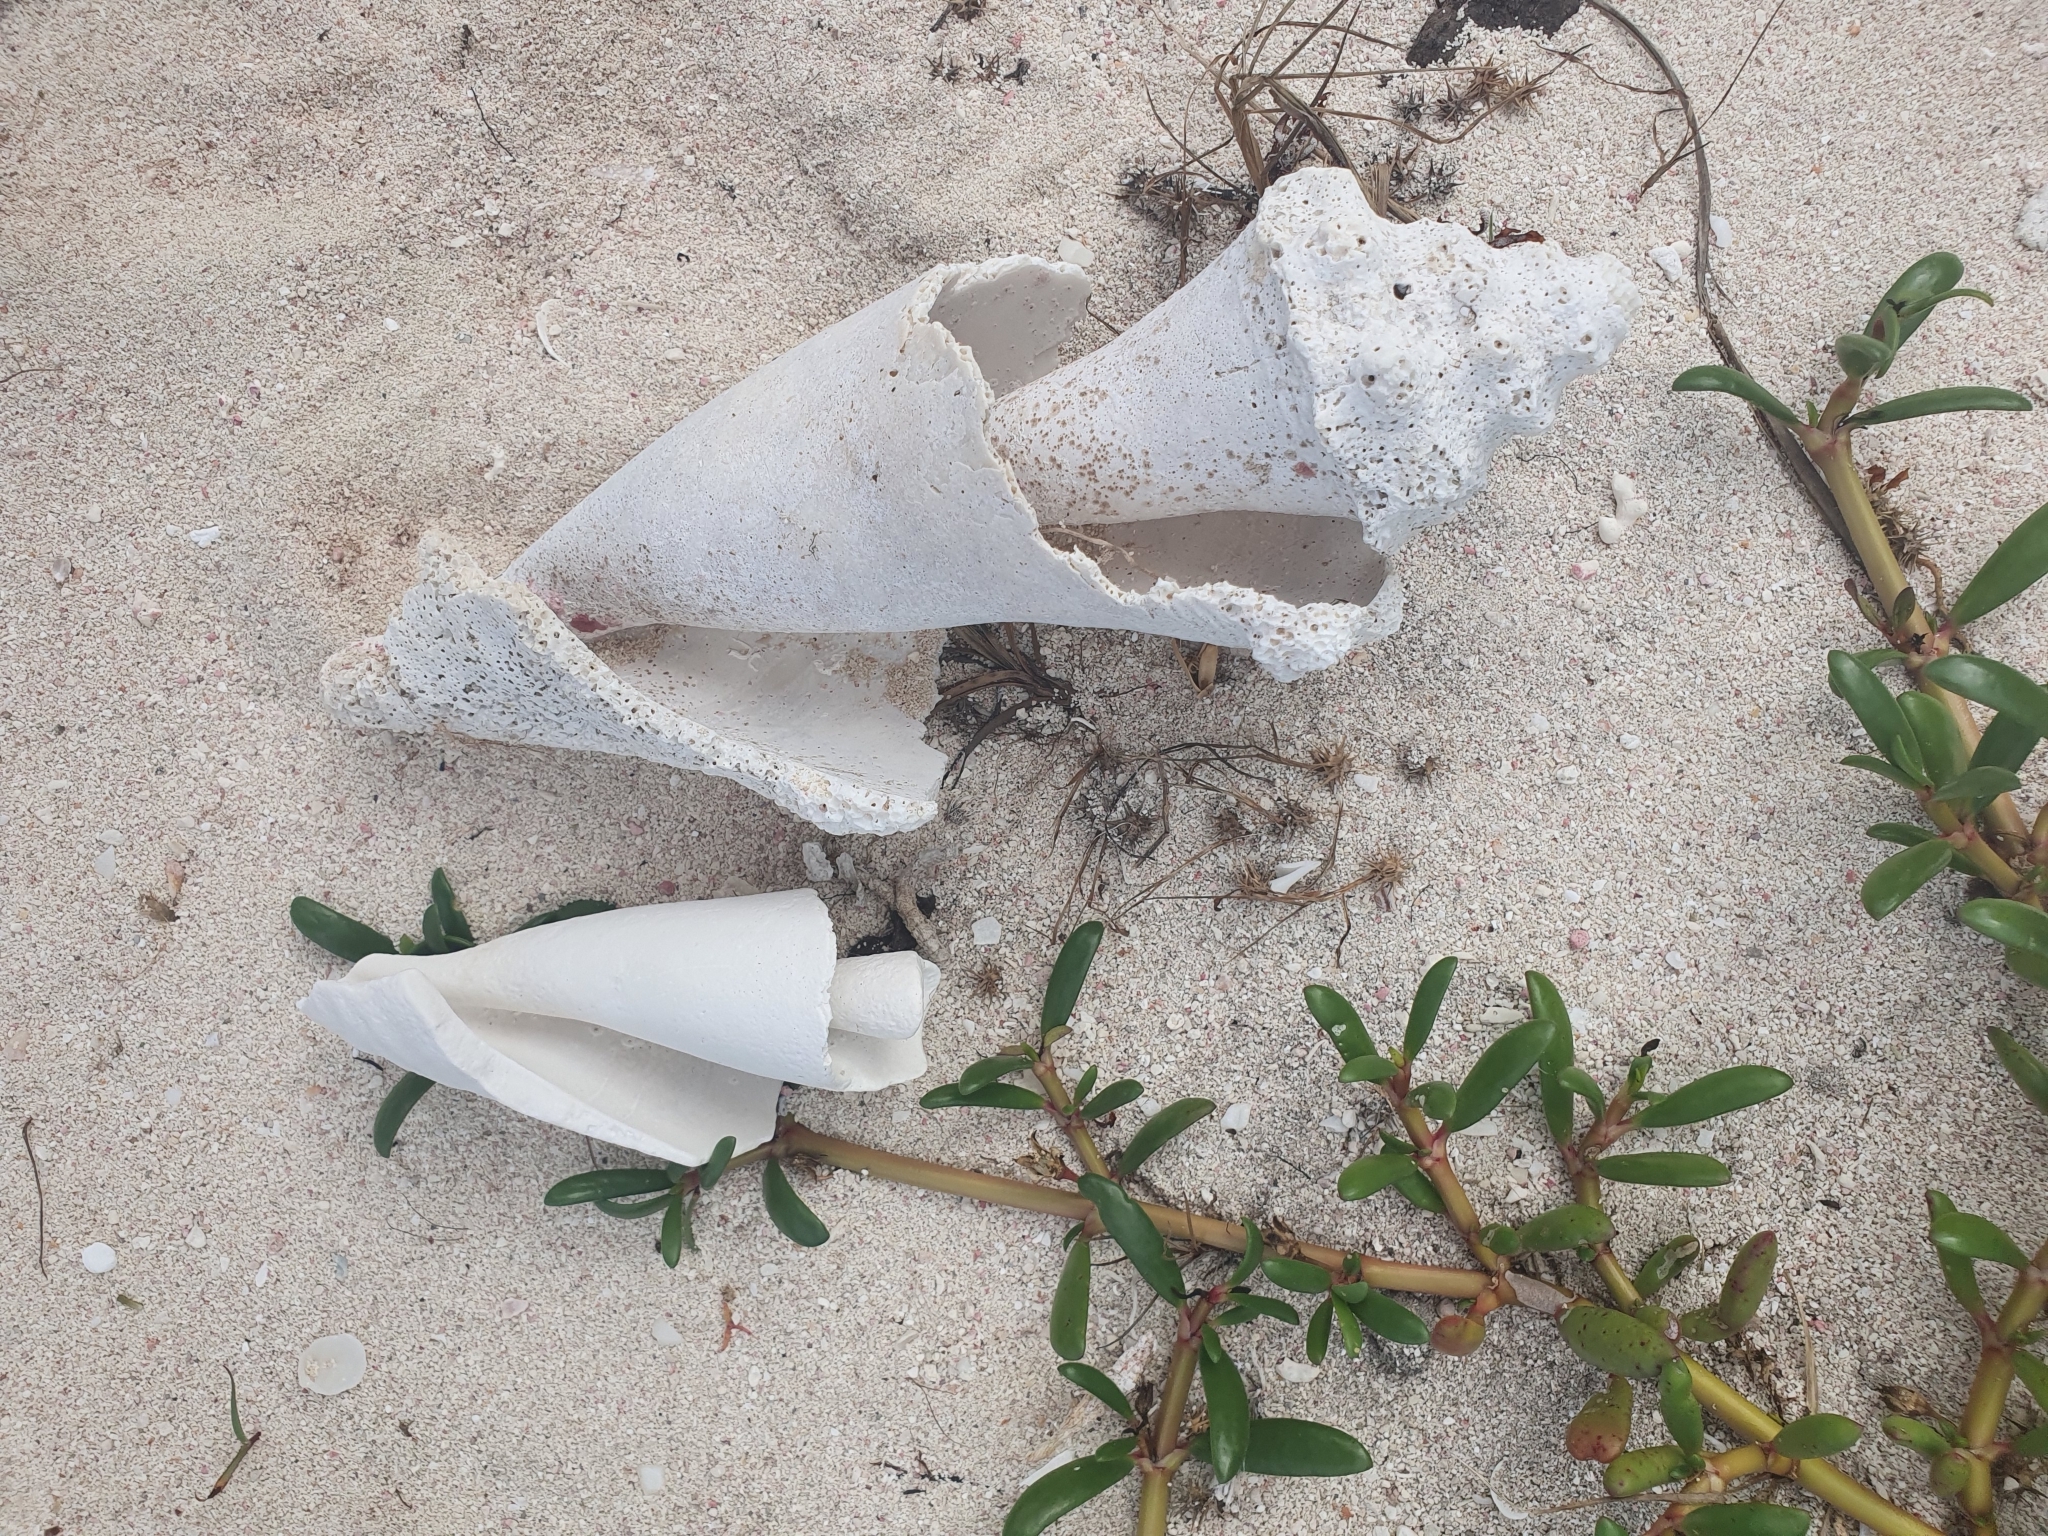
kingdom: Animalia
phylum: Mollusca
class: Gastropoda
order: Littorinimorpha
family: Strombidae
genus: Aliger
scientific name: Aliger gigas
